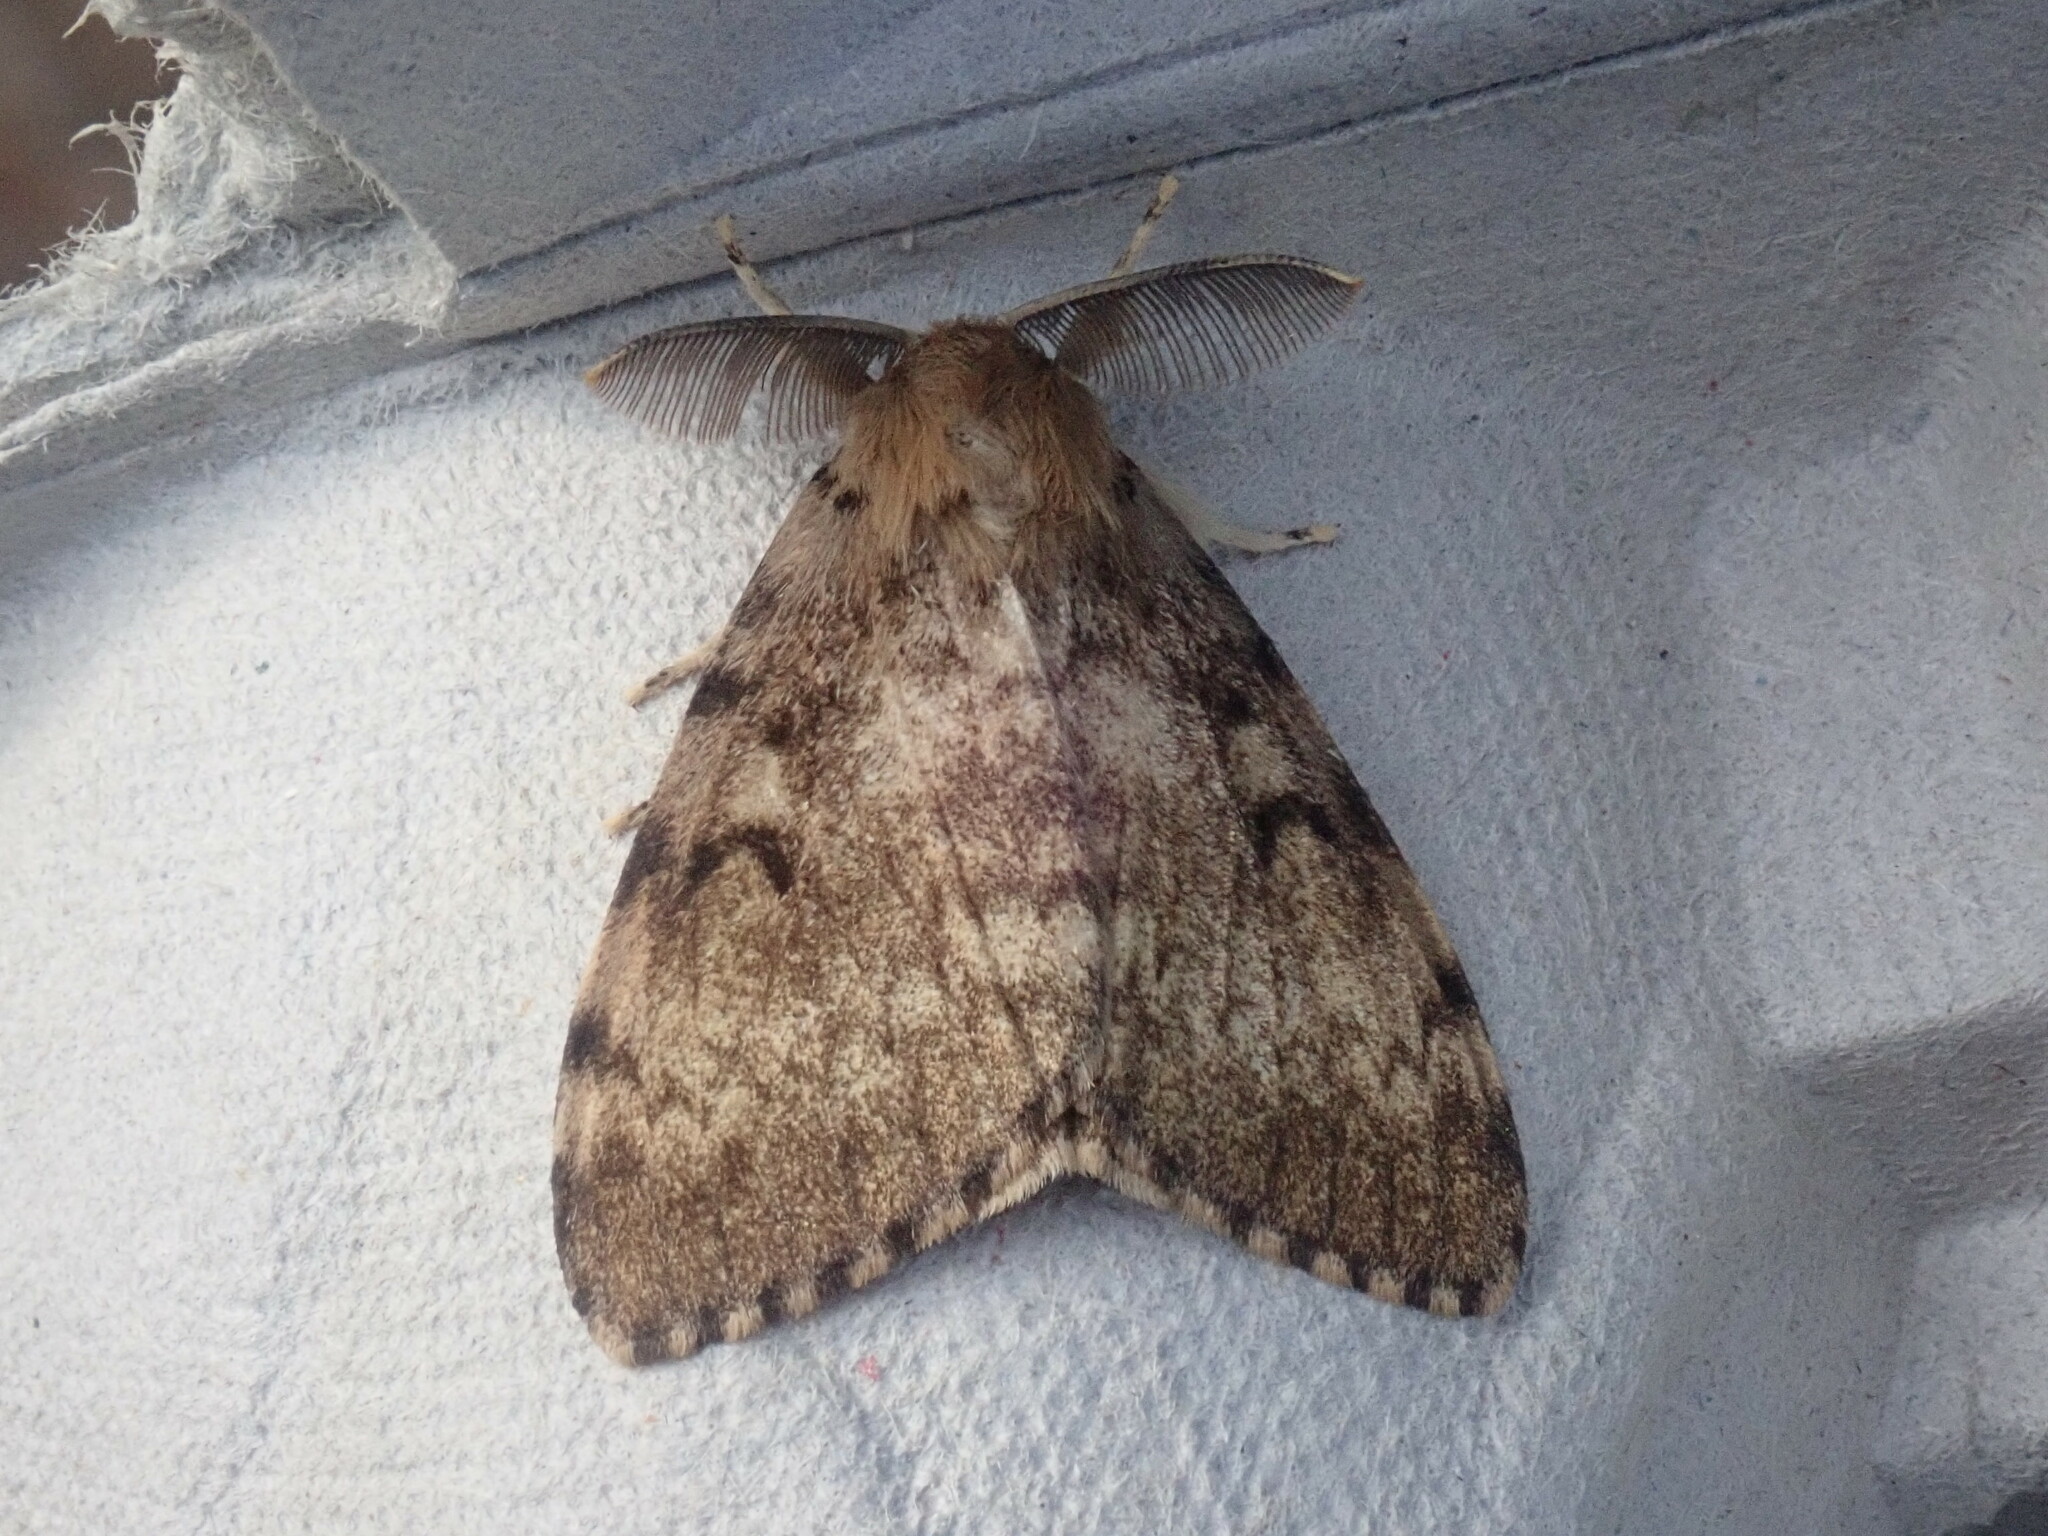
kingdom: Animalia
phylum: Arthropoda
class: Insecta
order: Lepidoptera
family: Erebidae
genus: Lymantria
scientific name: Lymantria dispar
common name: Gypsy moth
